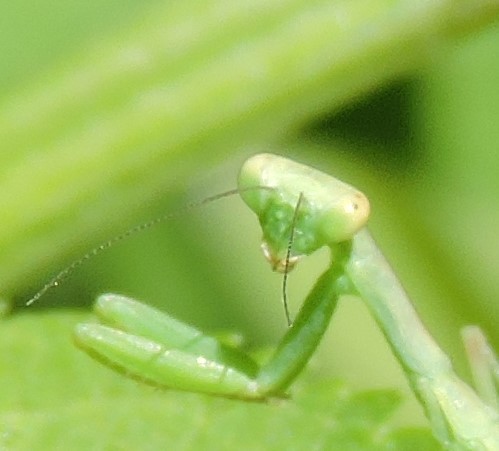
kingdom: Animalia
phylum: Arthropoda
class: Insecta
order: Mantodea
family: Mantidae
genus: Hierodula
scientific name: Hierodula transcaucasica
